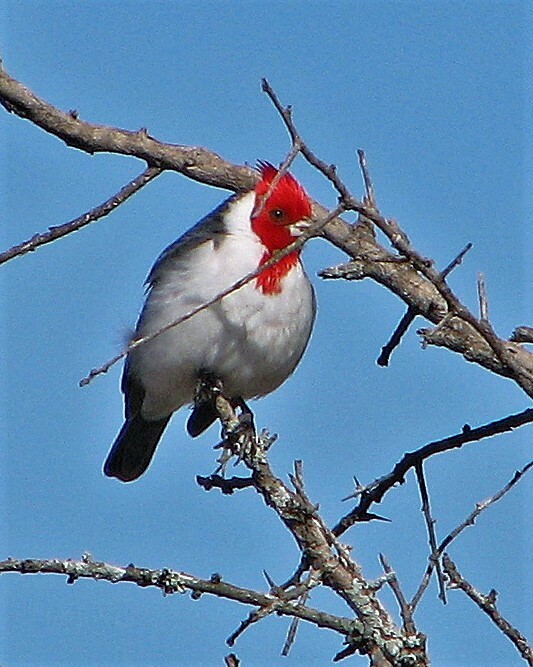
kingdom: Animalia
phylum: Chordata
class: Aves
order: Passeriformes
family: Thraupidae
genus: Paroaria
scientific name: Paroaria coronata
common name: Red-crested cardinal
